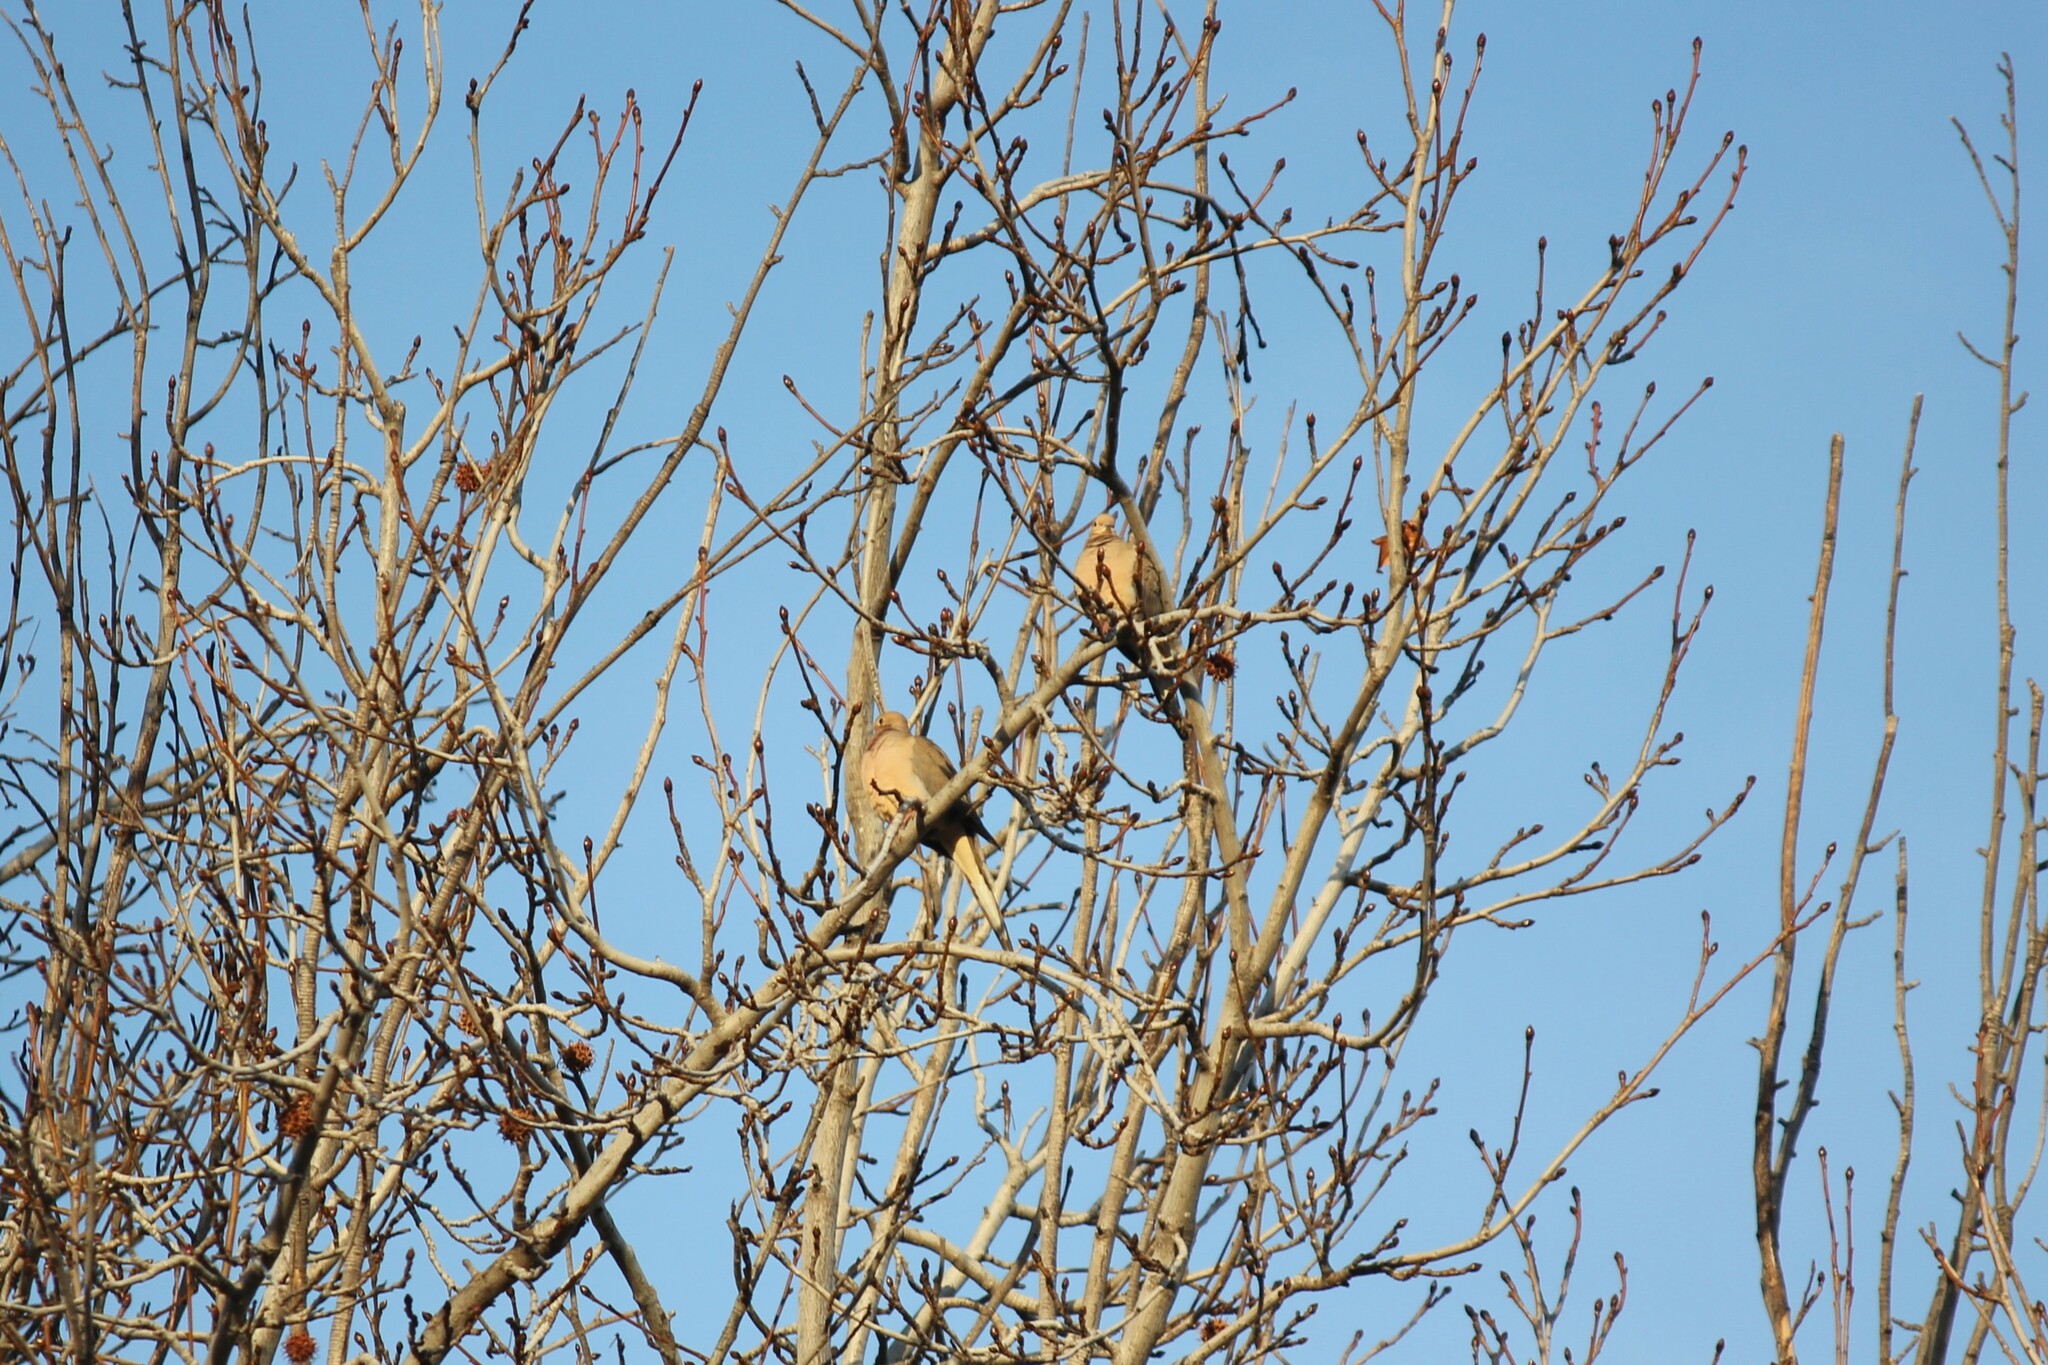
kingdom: Animalia
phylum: Chordata
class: Aves
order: Columbiformes
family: Columbidae
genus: Zenaida
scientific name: Zenaida macroura
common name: Mourning dove
